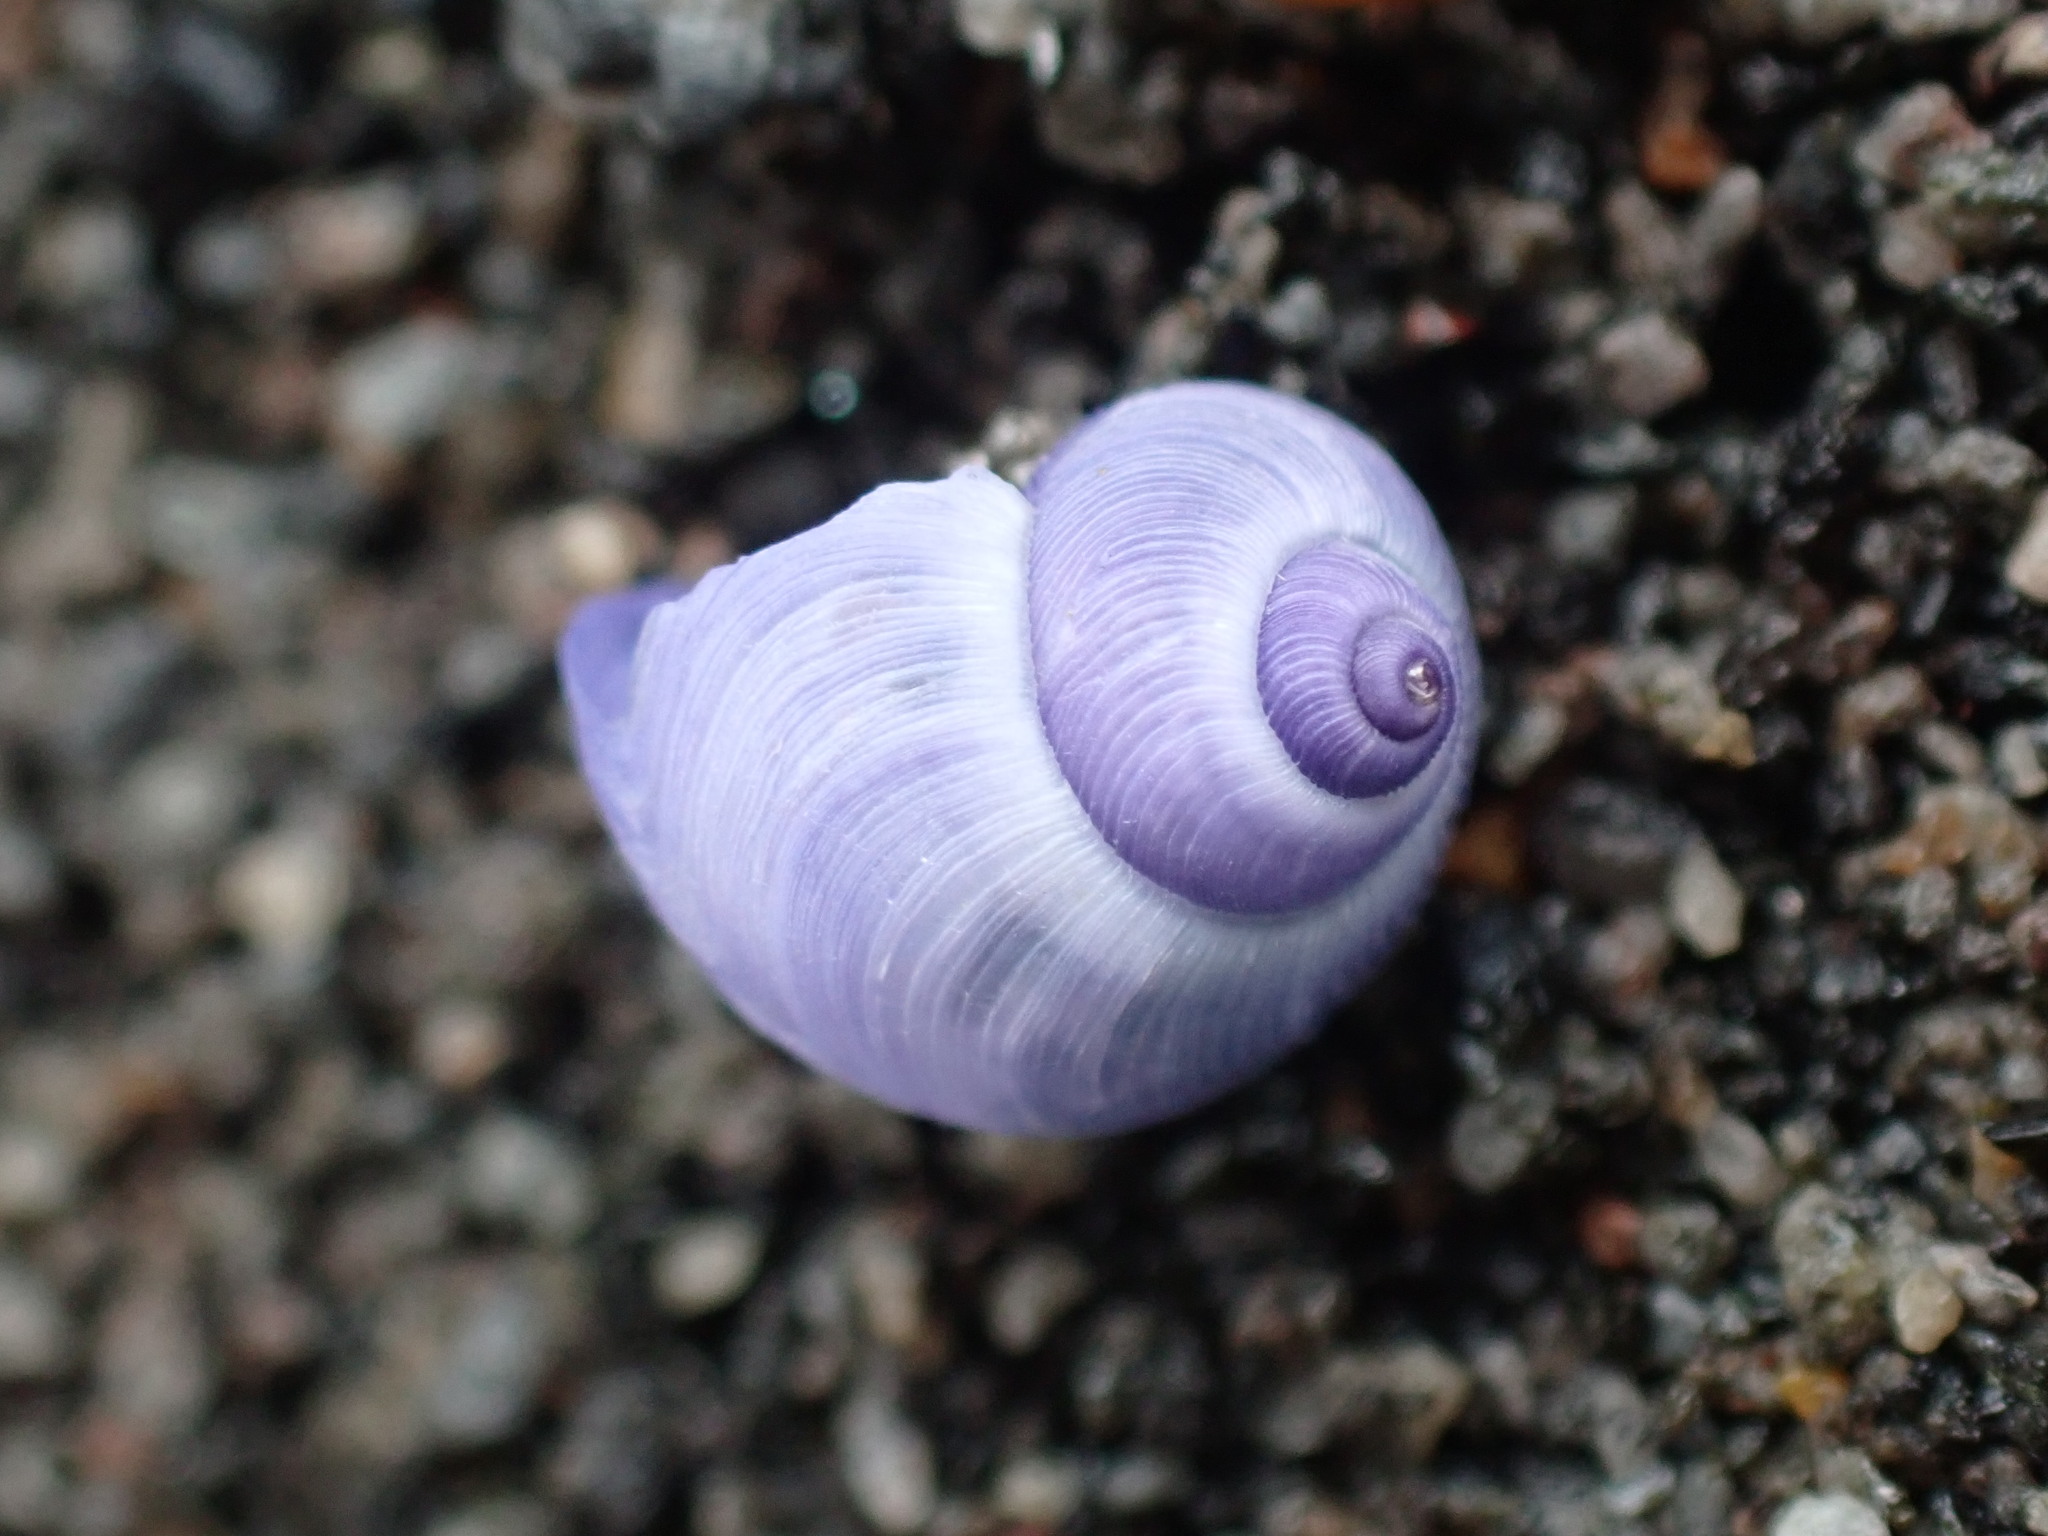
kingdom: Animalia
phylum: Mollusca
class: Gastropoda
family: Epitoniidae
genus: Janthina
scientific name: Janthina exigua
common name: Dwarf janthina
